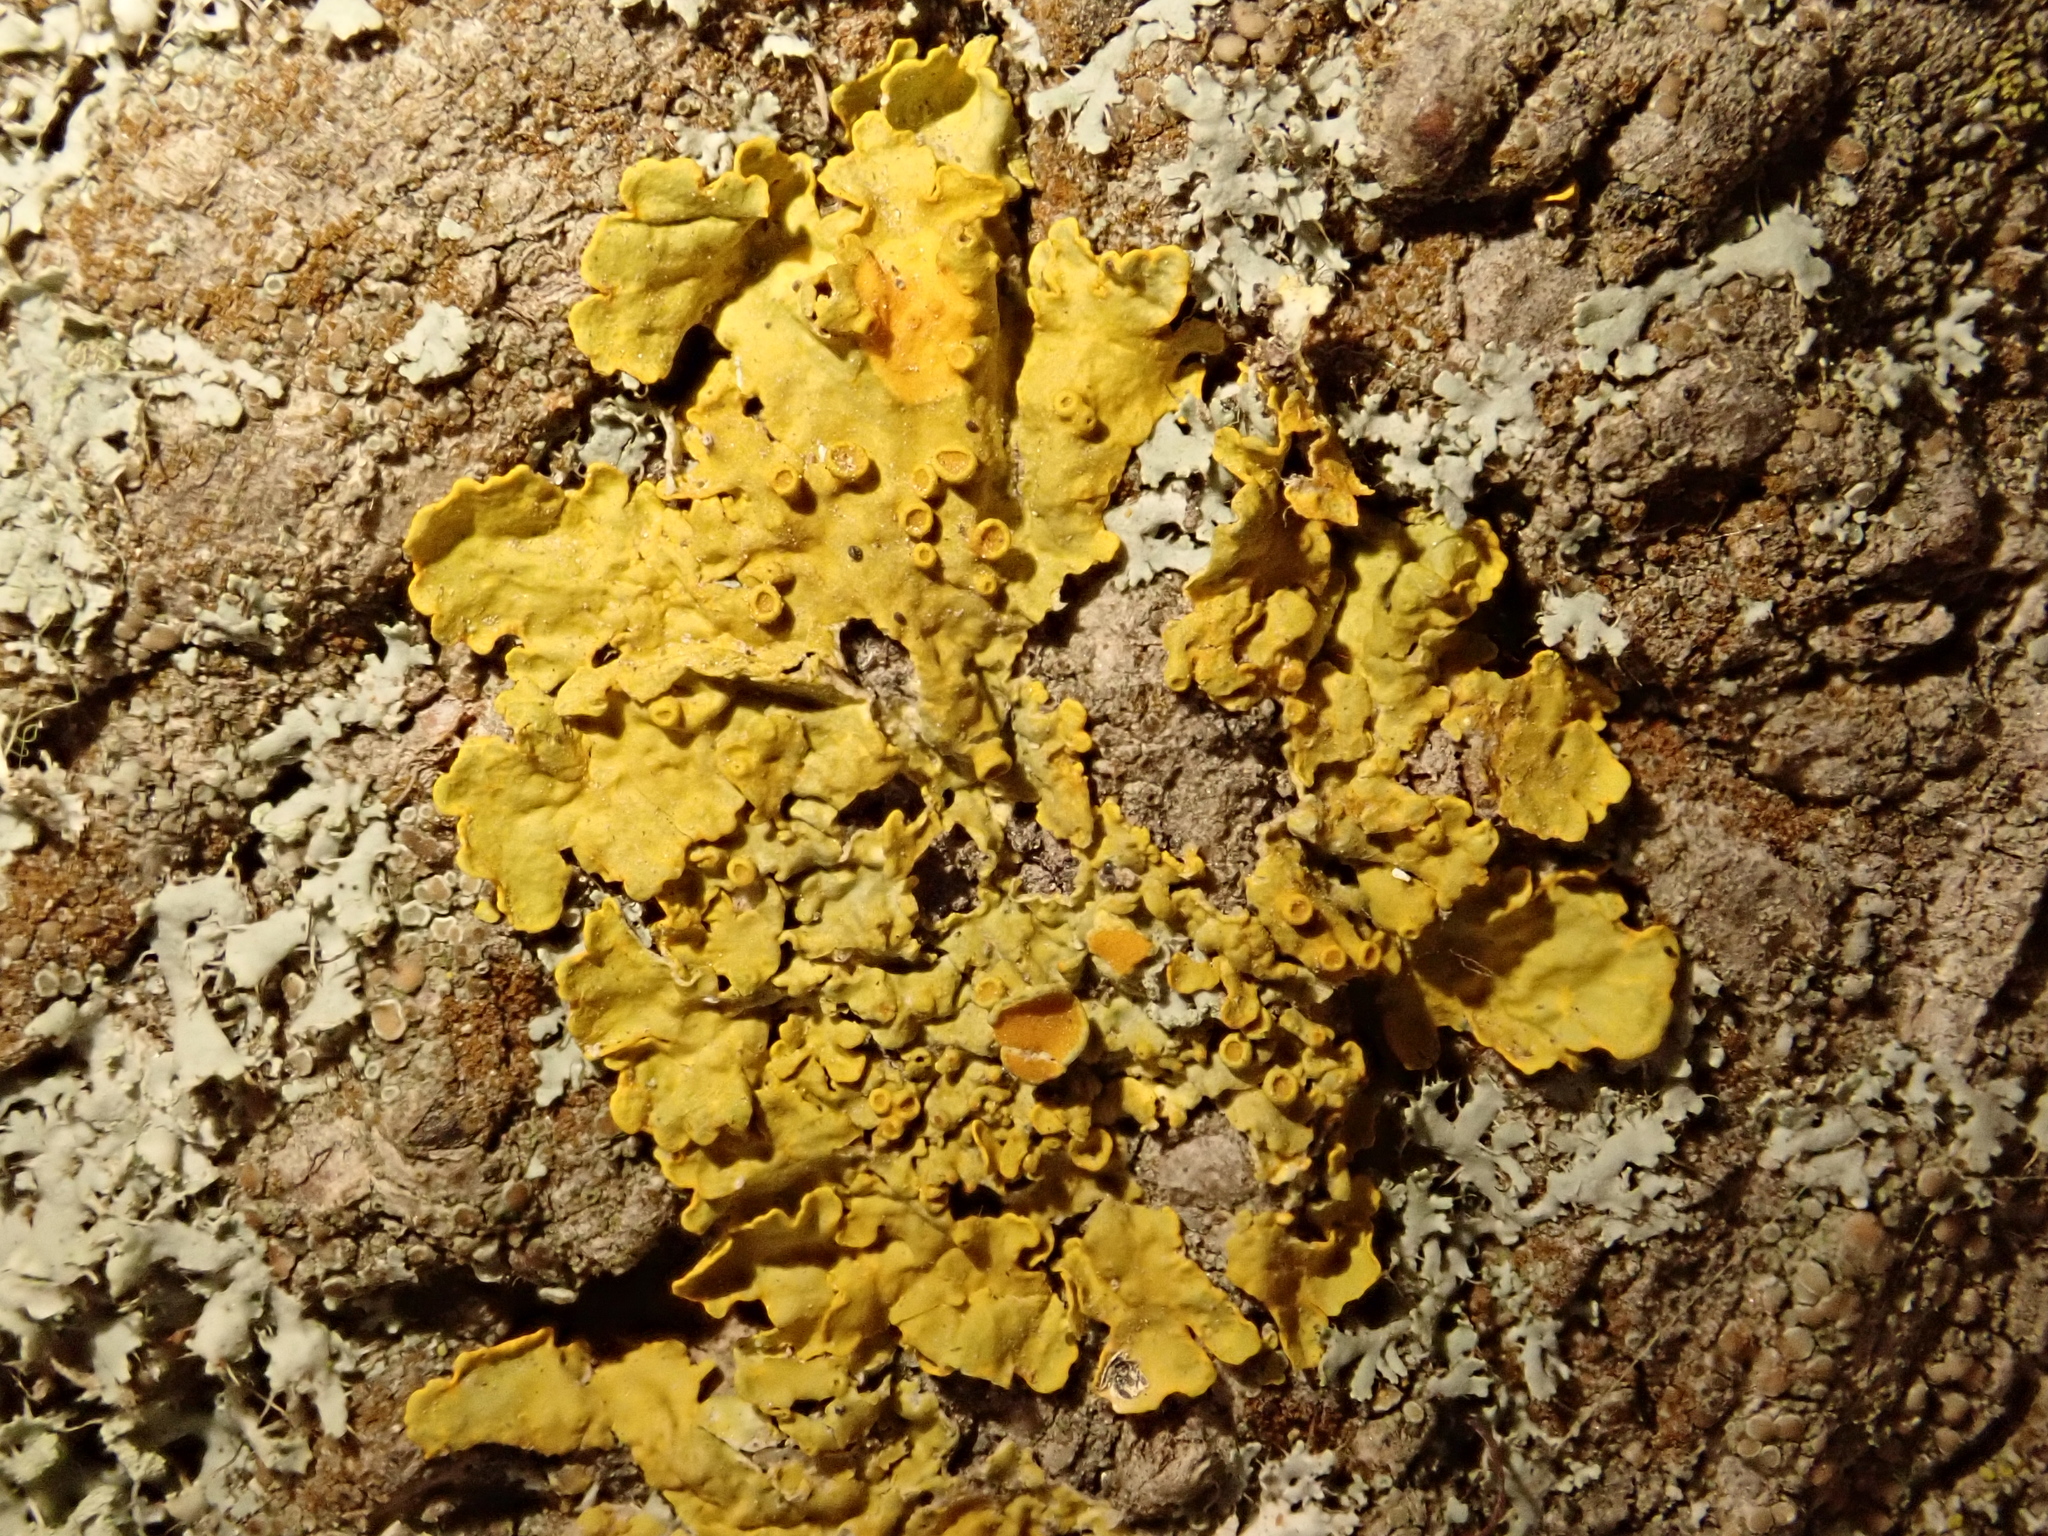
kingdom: Fungi
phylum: Ascomycota
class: Lecanoromycetes
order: Teloschistales
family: Teloschistaceae
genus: Xanthoria
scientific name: Xanthoria parietina
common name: Common orange lichen
